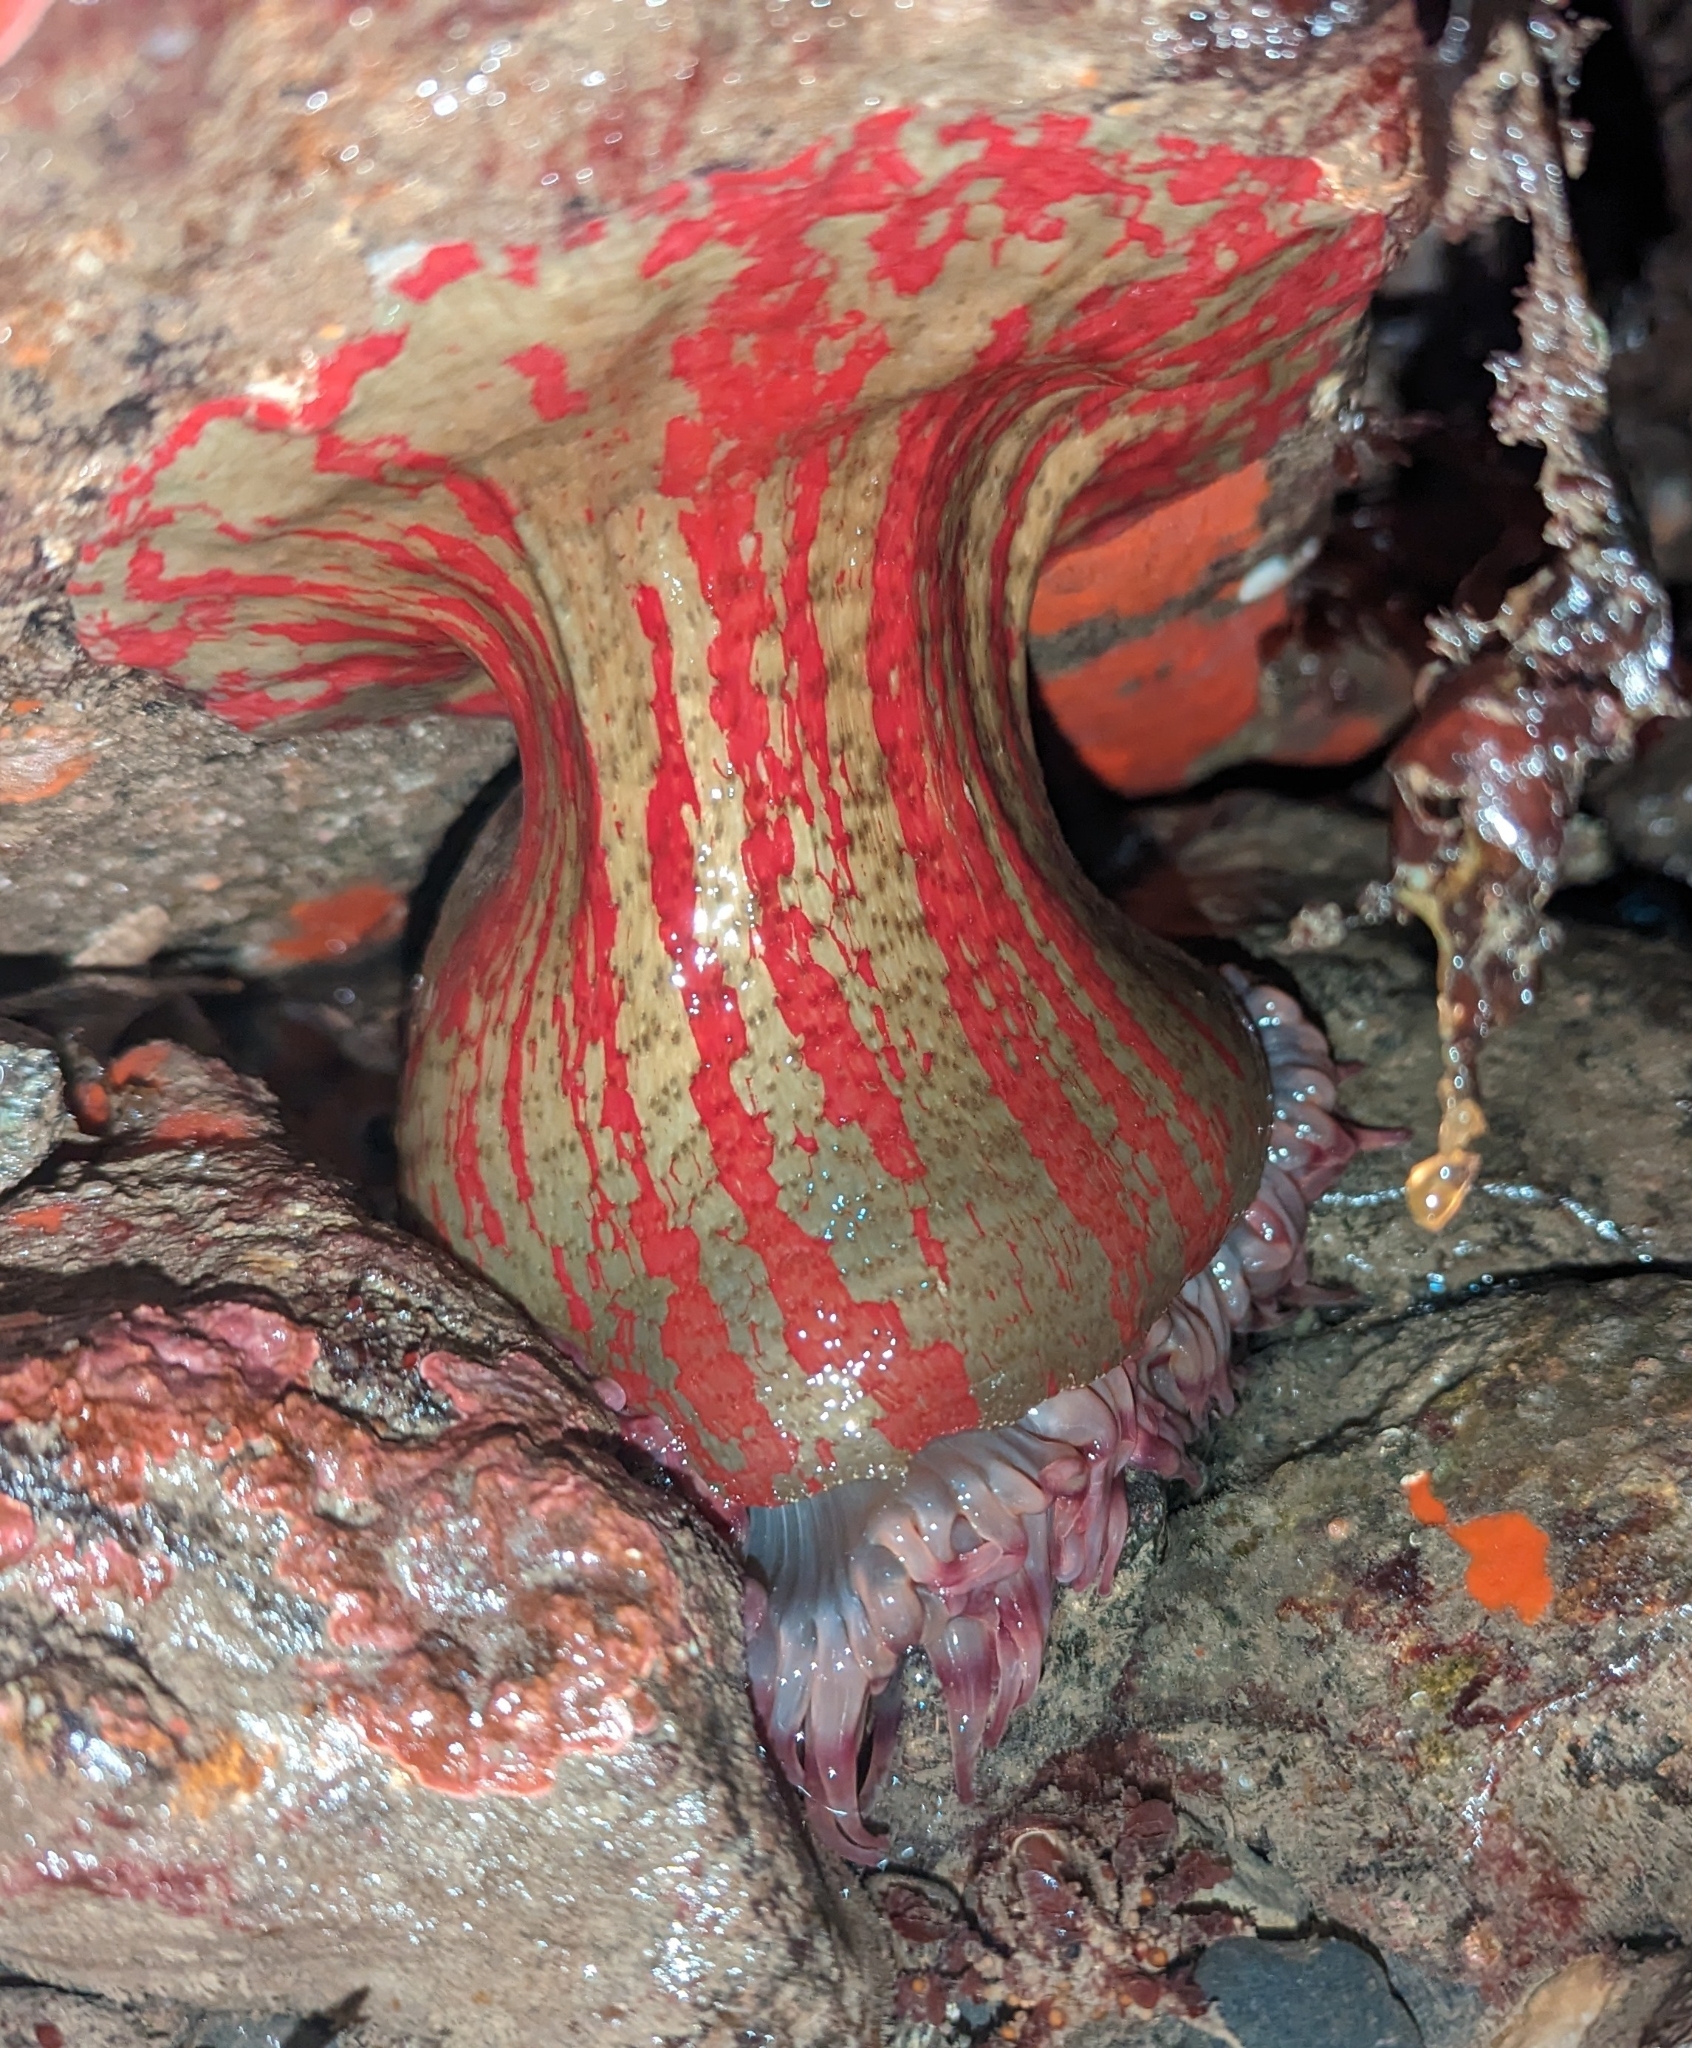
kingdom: Animalia
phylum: Cnidaria
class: Anthozoa
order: Actiniaria
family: Actiniidae
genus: Urticina
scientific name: Urticina grebelnyi
